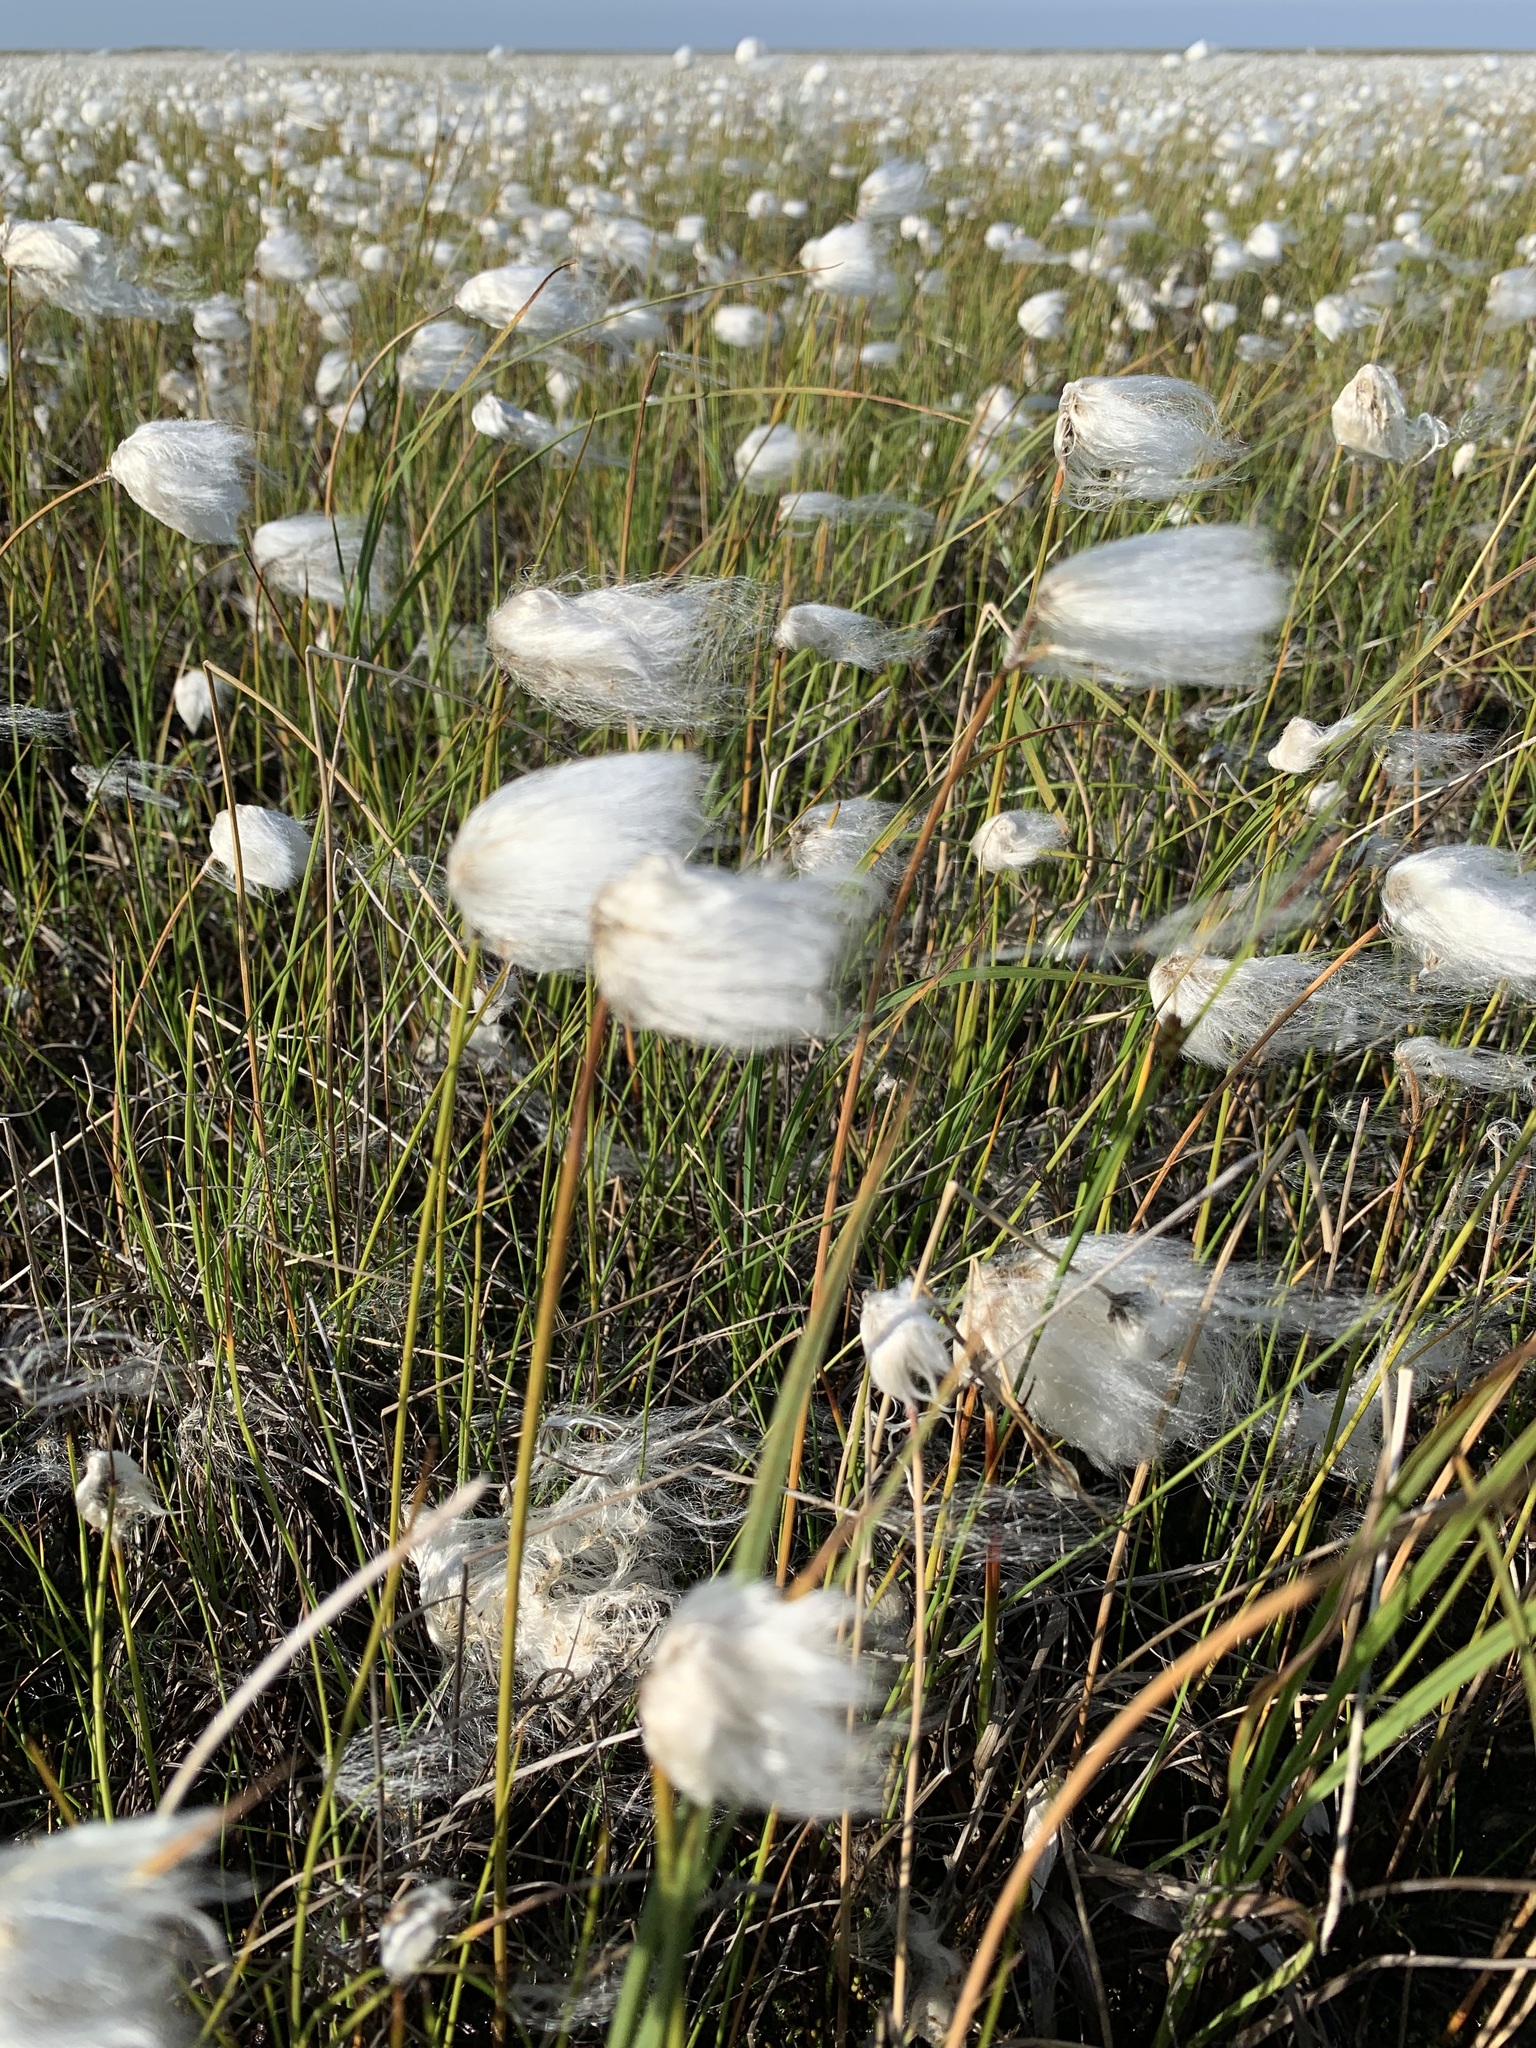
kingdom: Plantae
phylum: Tracheophyta
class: Liliopsida
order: Poales
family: Cyperaceae
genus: Eriophorum
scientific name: Eriophorum scheuchzeri
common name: Scheuchzer's cottongrass
